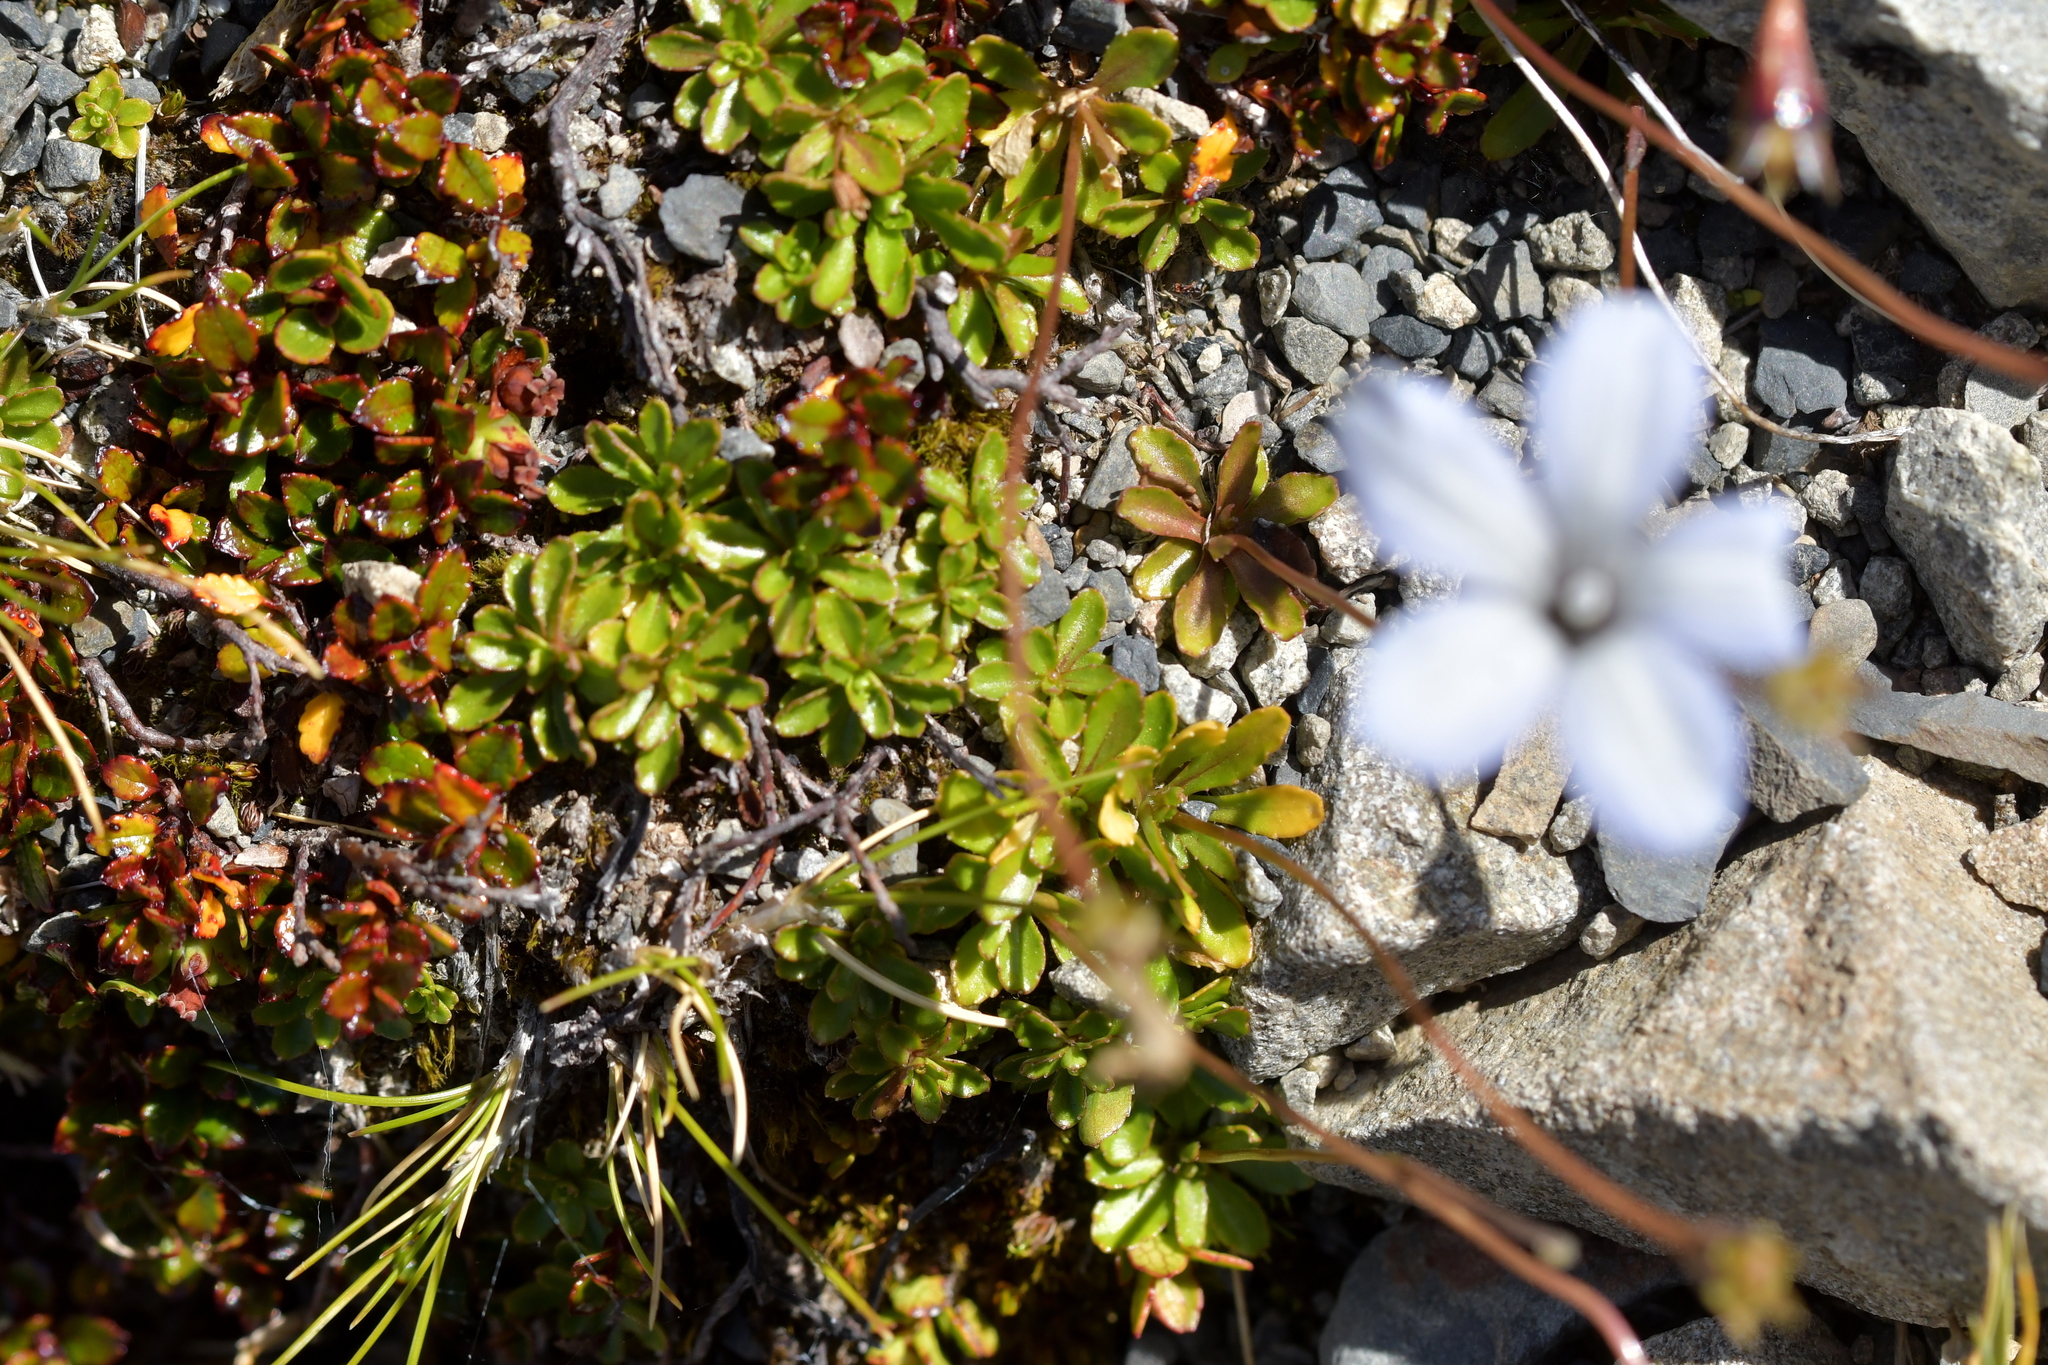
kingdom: Plantae
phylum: Tracheophyta
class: Magnoliopsida
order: Asterales
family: Campanulaceae
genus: Wahlenbergia
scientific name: Wahlenbergia albomarginata
